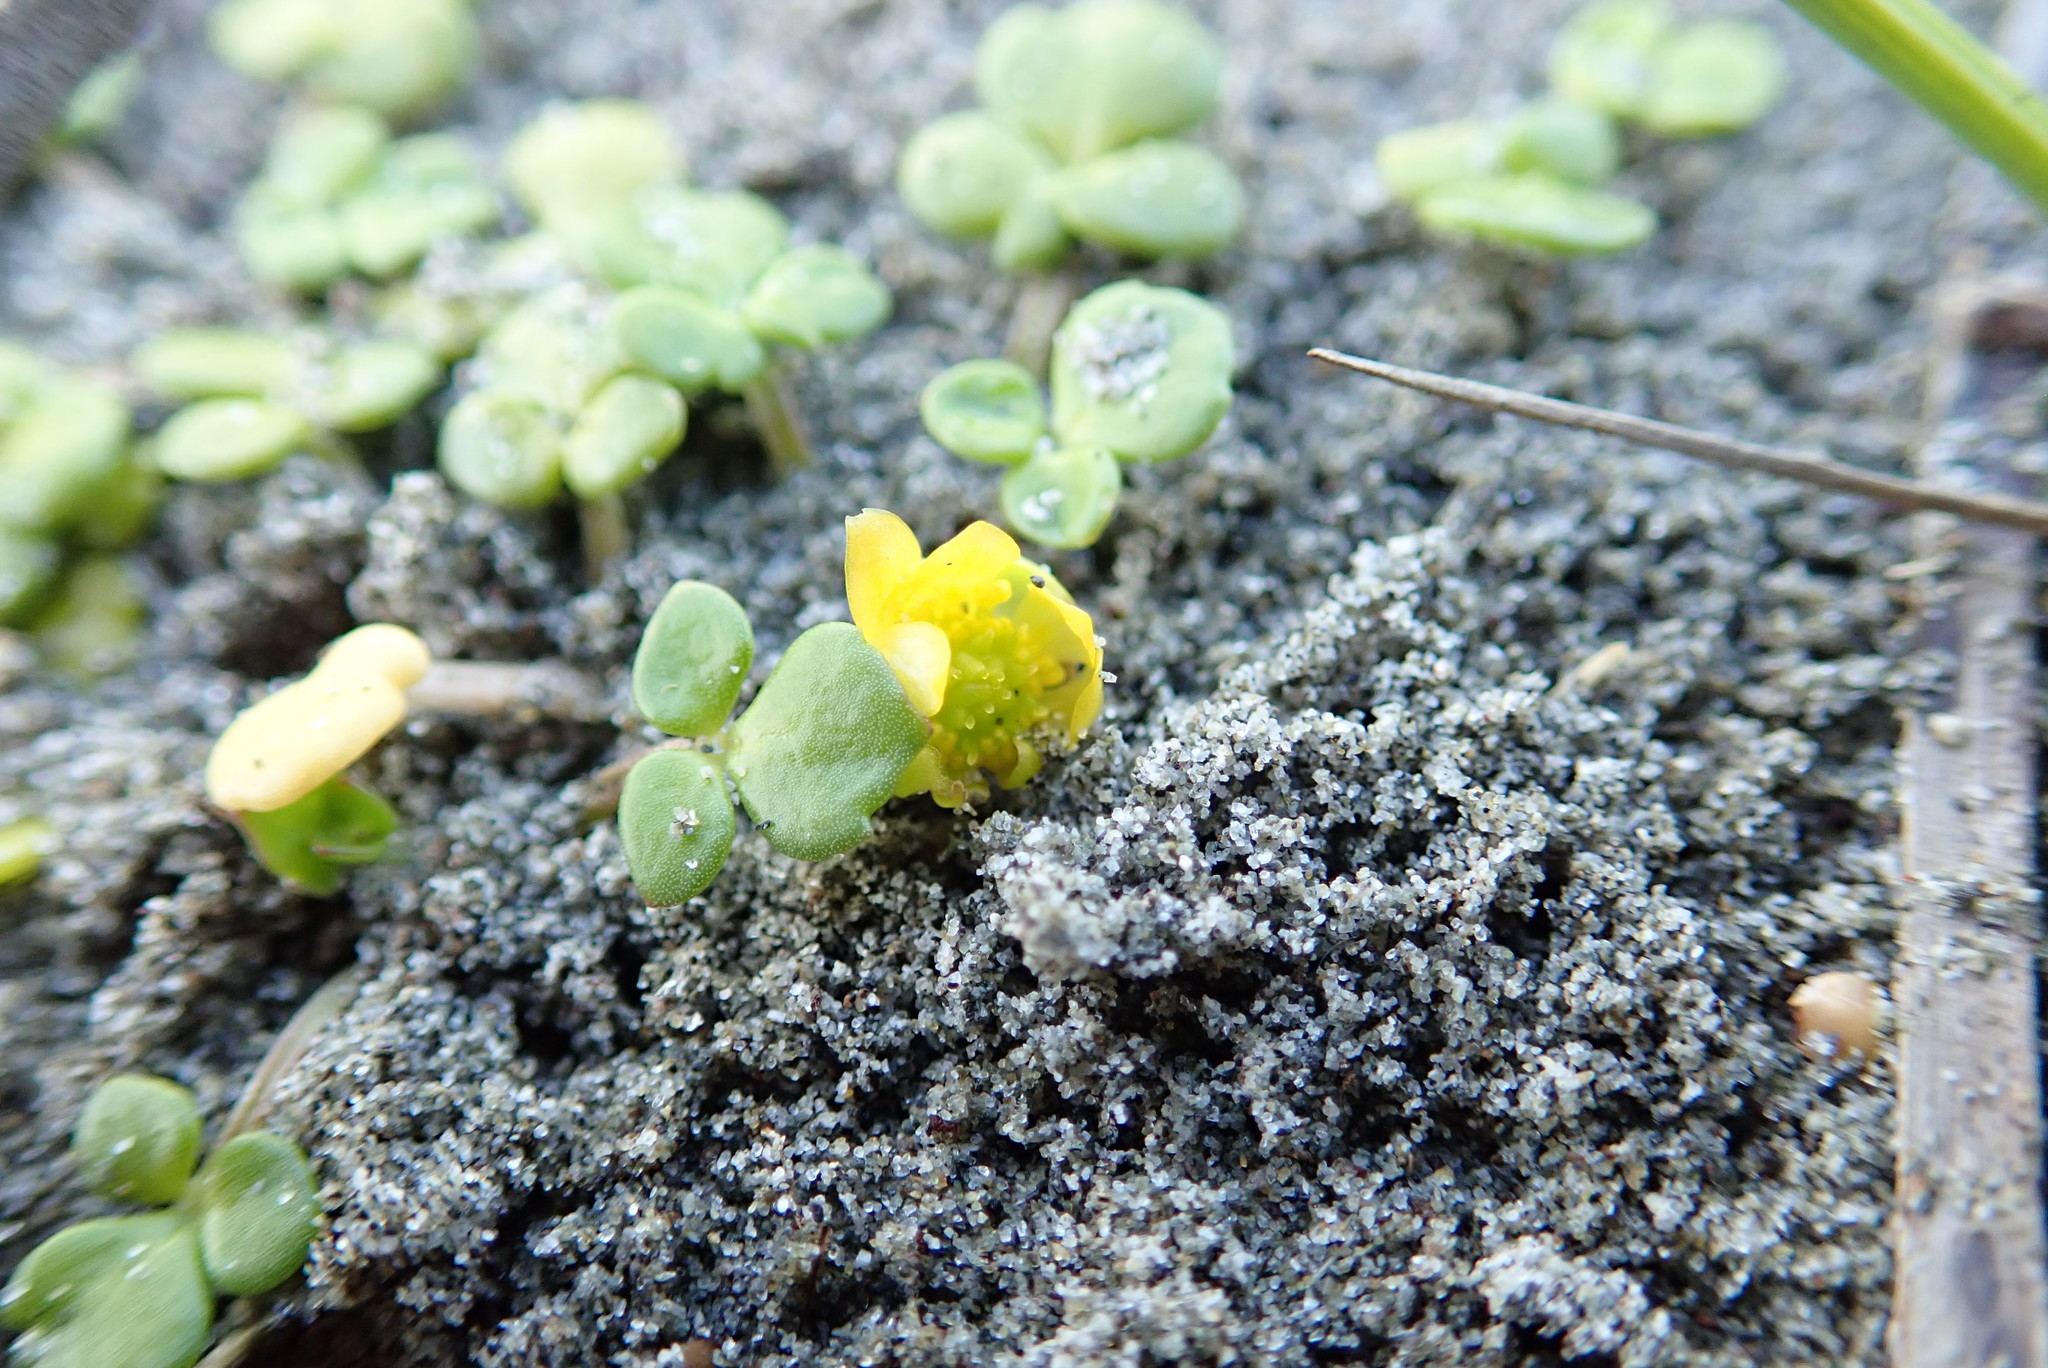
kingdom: Plantae
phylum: Tracheophyta
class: Magnoliopsida
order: Ranunculales
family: Ranunculaceae
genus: Ranunculus
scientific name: Ranunculus acaulis
